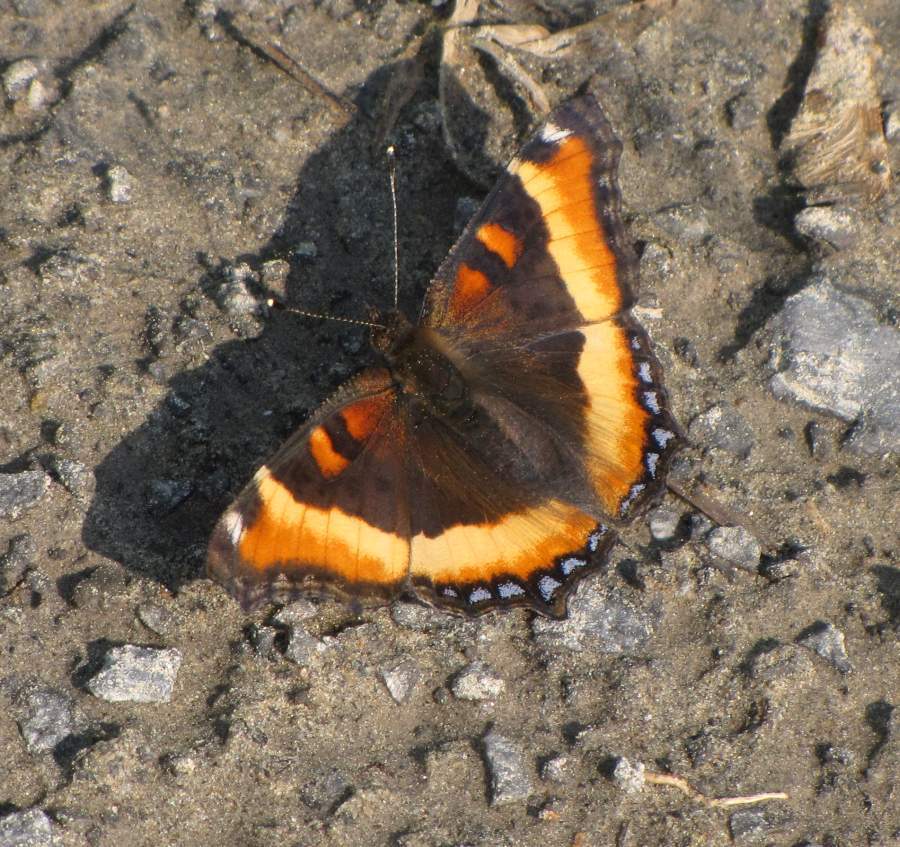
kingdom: Animalia
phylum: Arthropoda
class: Insecta
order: Lepidoptera
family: Nymphalidae
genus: Aglais
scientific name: Aglais milberti
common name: Milbert's tortoiseshell
